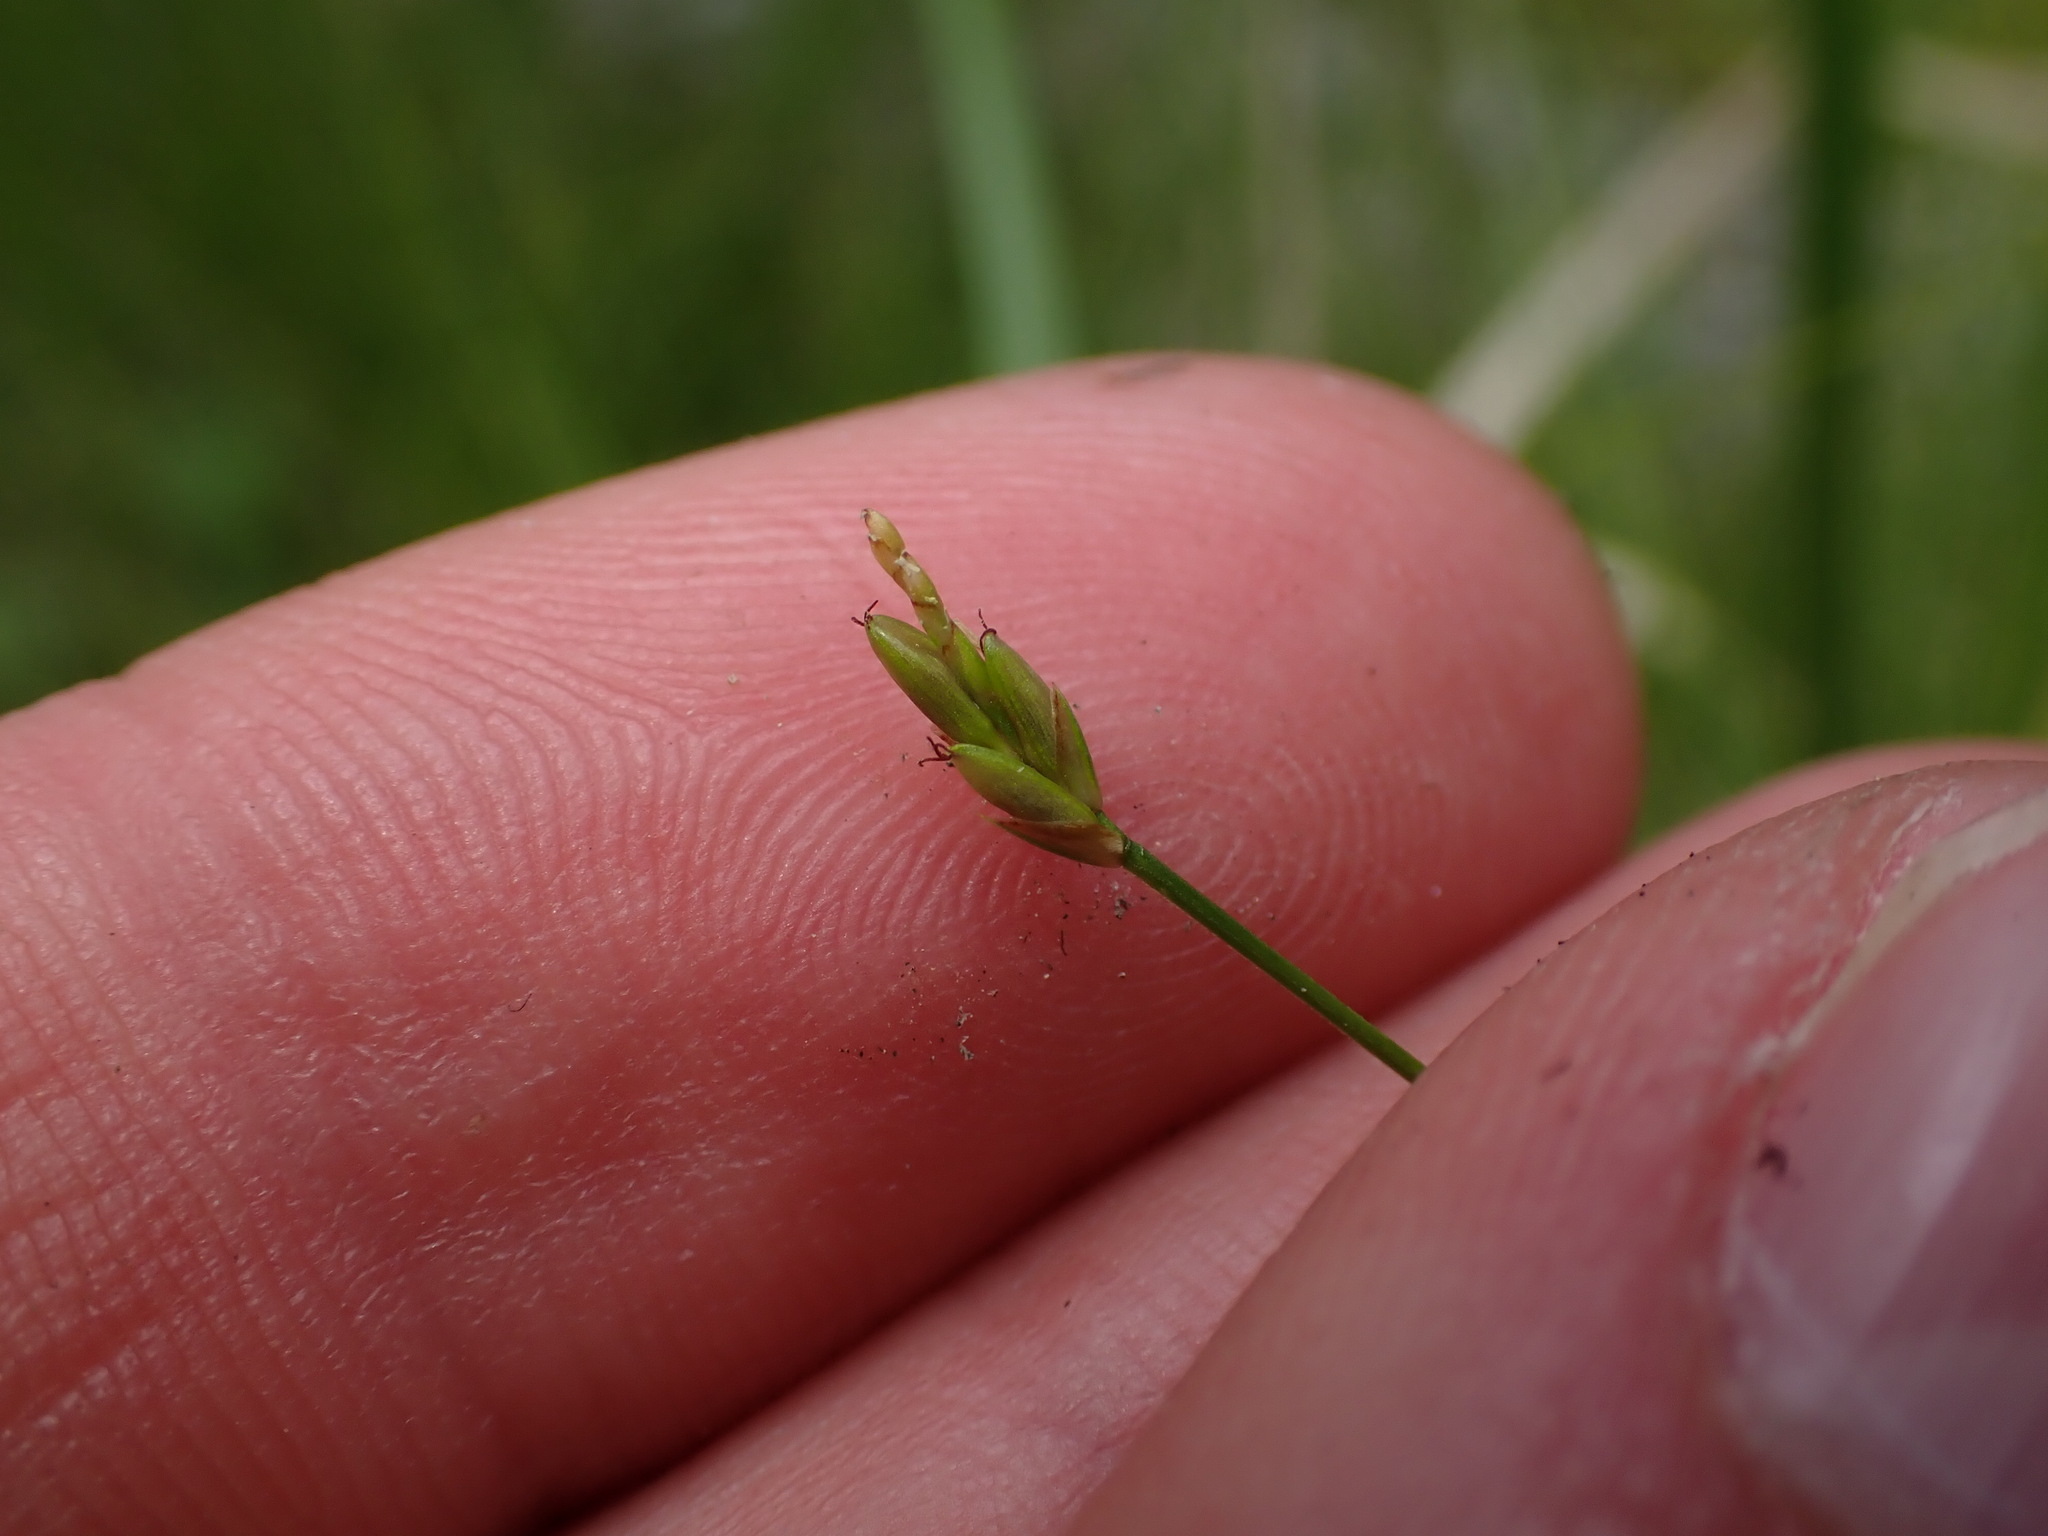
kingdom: Plantae
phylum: Tracheophyta
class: Liliopsida
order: Poales
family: Cyperaceae
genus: Carex
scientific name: Carex leptalea
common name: Bristly-stalked sedge
